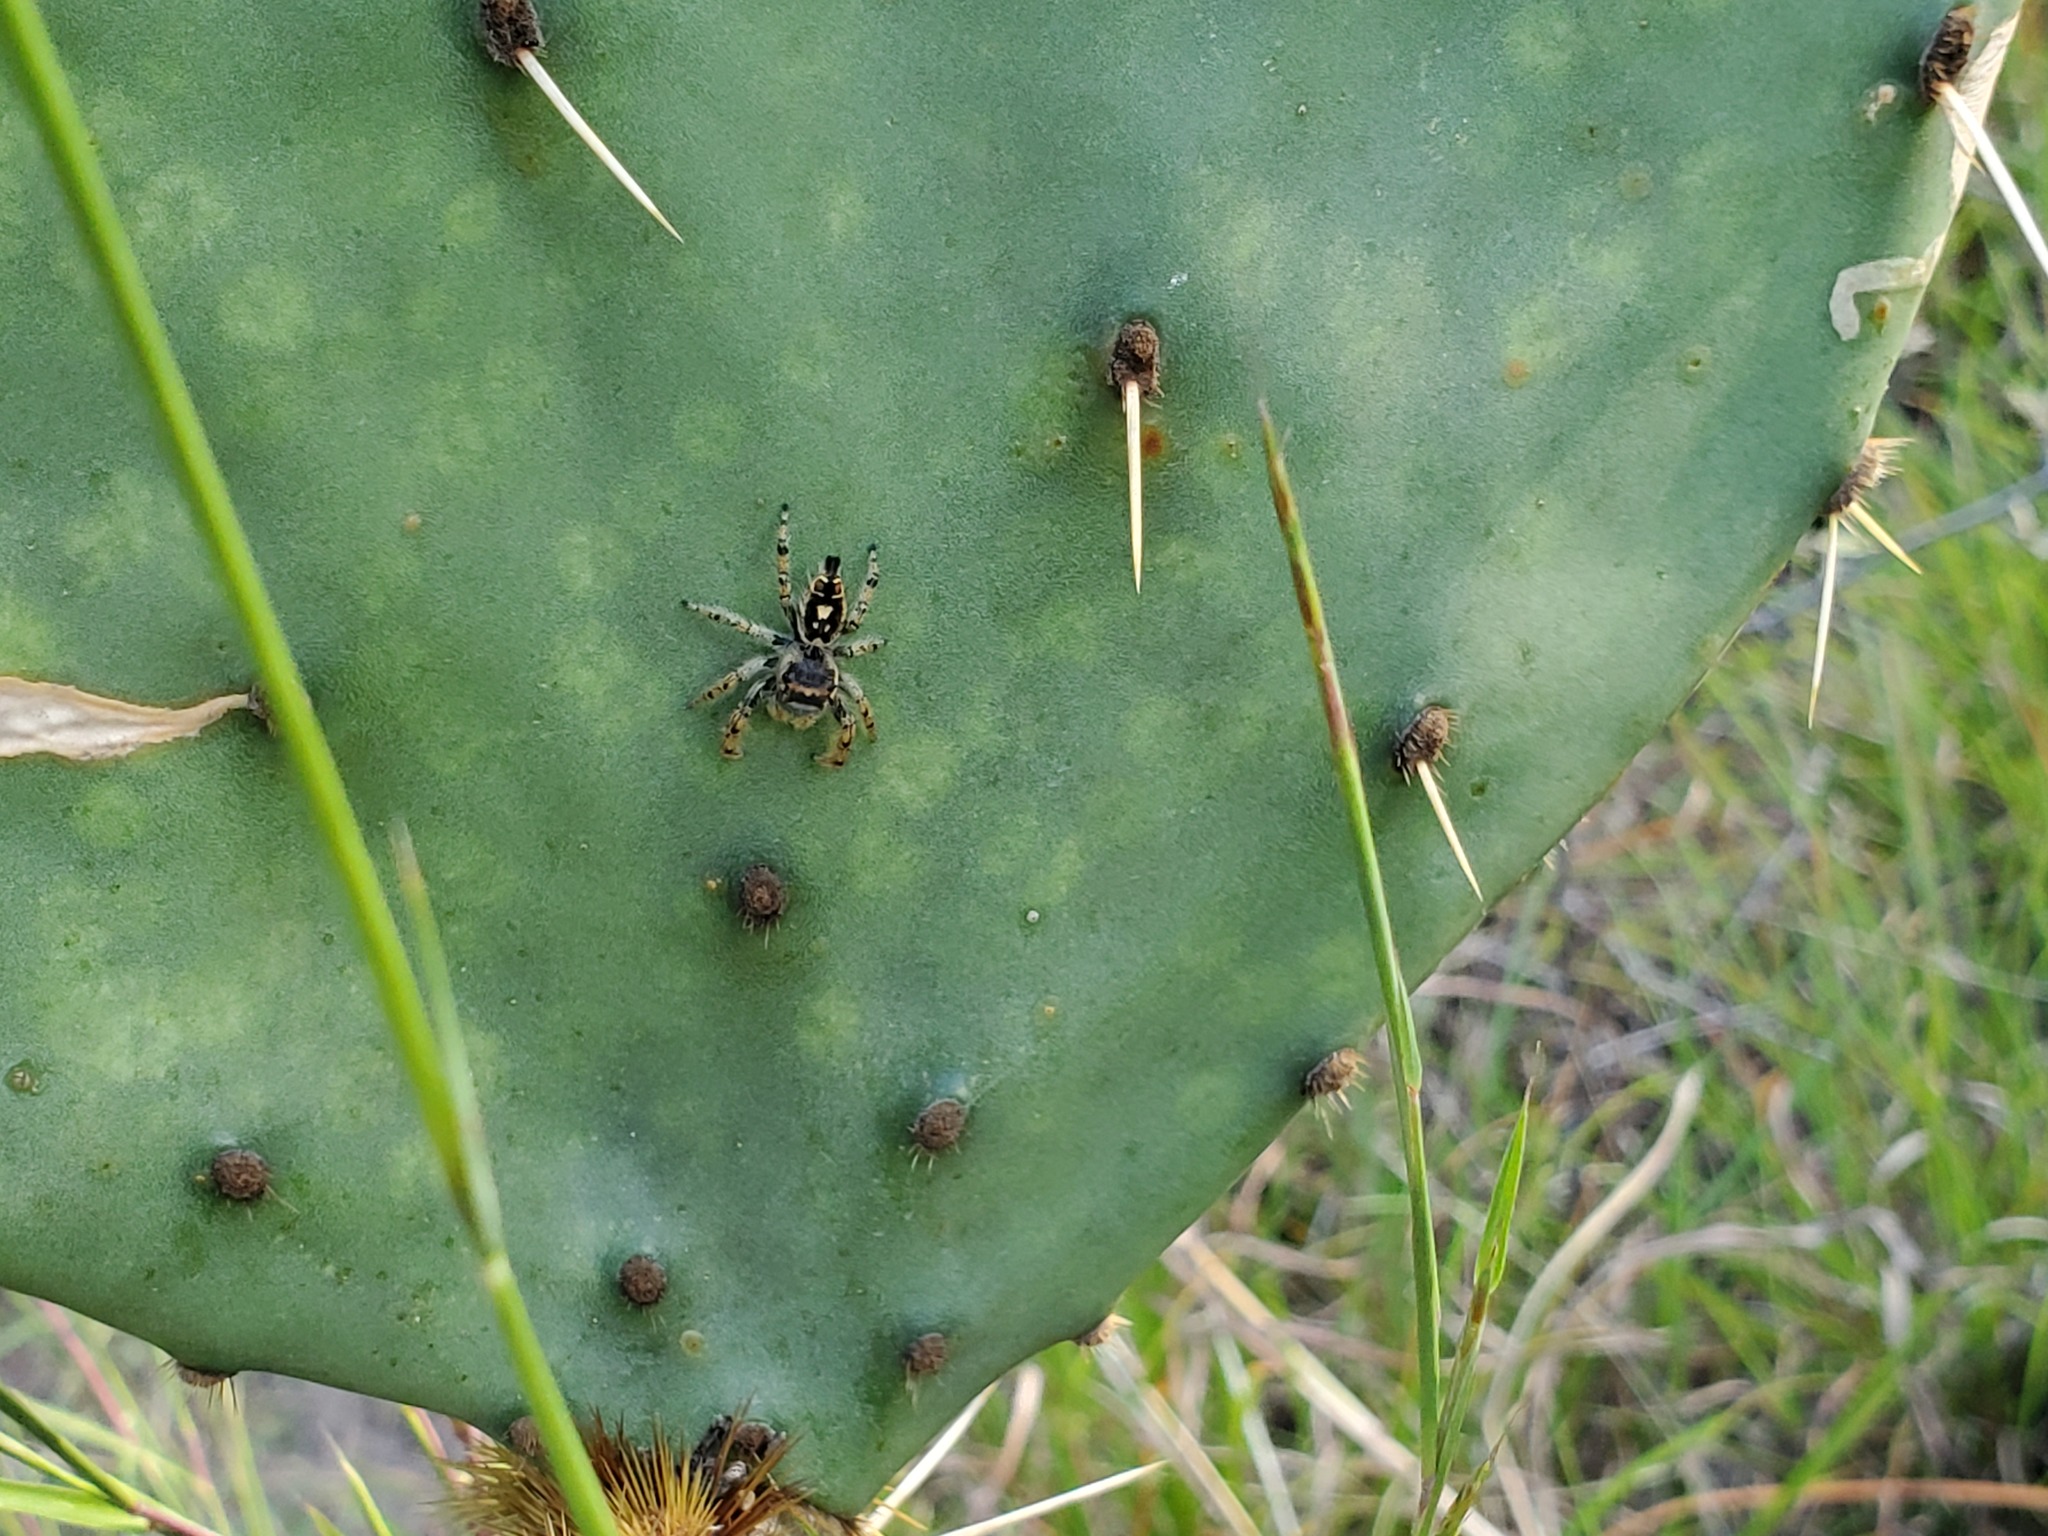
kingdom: Animalia
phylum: Arthropoda
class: Arachnida
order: Araneae
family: Salticidae
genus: Phidippus
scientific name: Phidippus arizonensis
